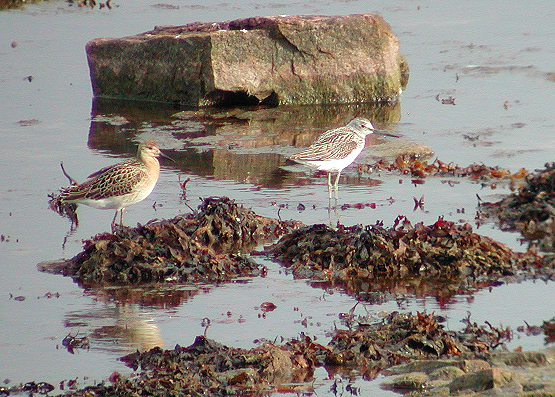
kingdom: Animalia
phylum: Chordata
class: Aves
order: Charadriiformes
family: Scolopacidae
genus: Tringa
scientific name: Tringa nebularia
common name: Common greenshank
